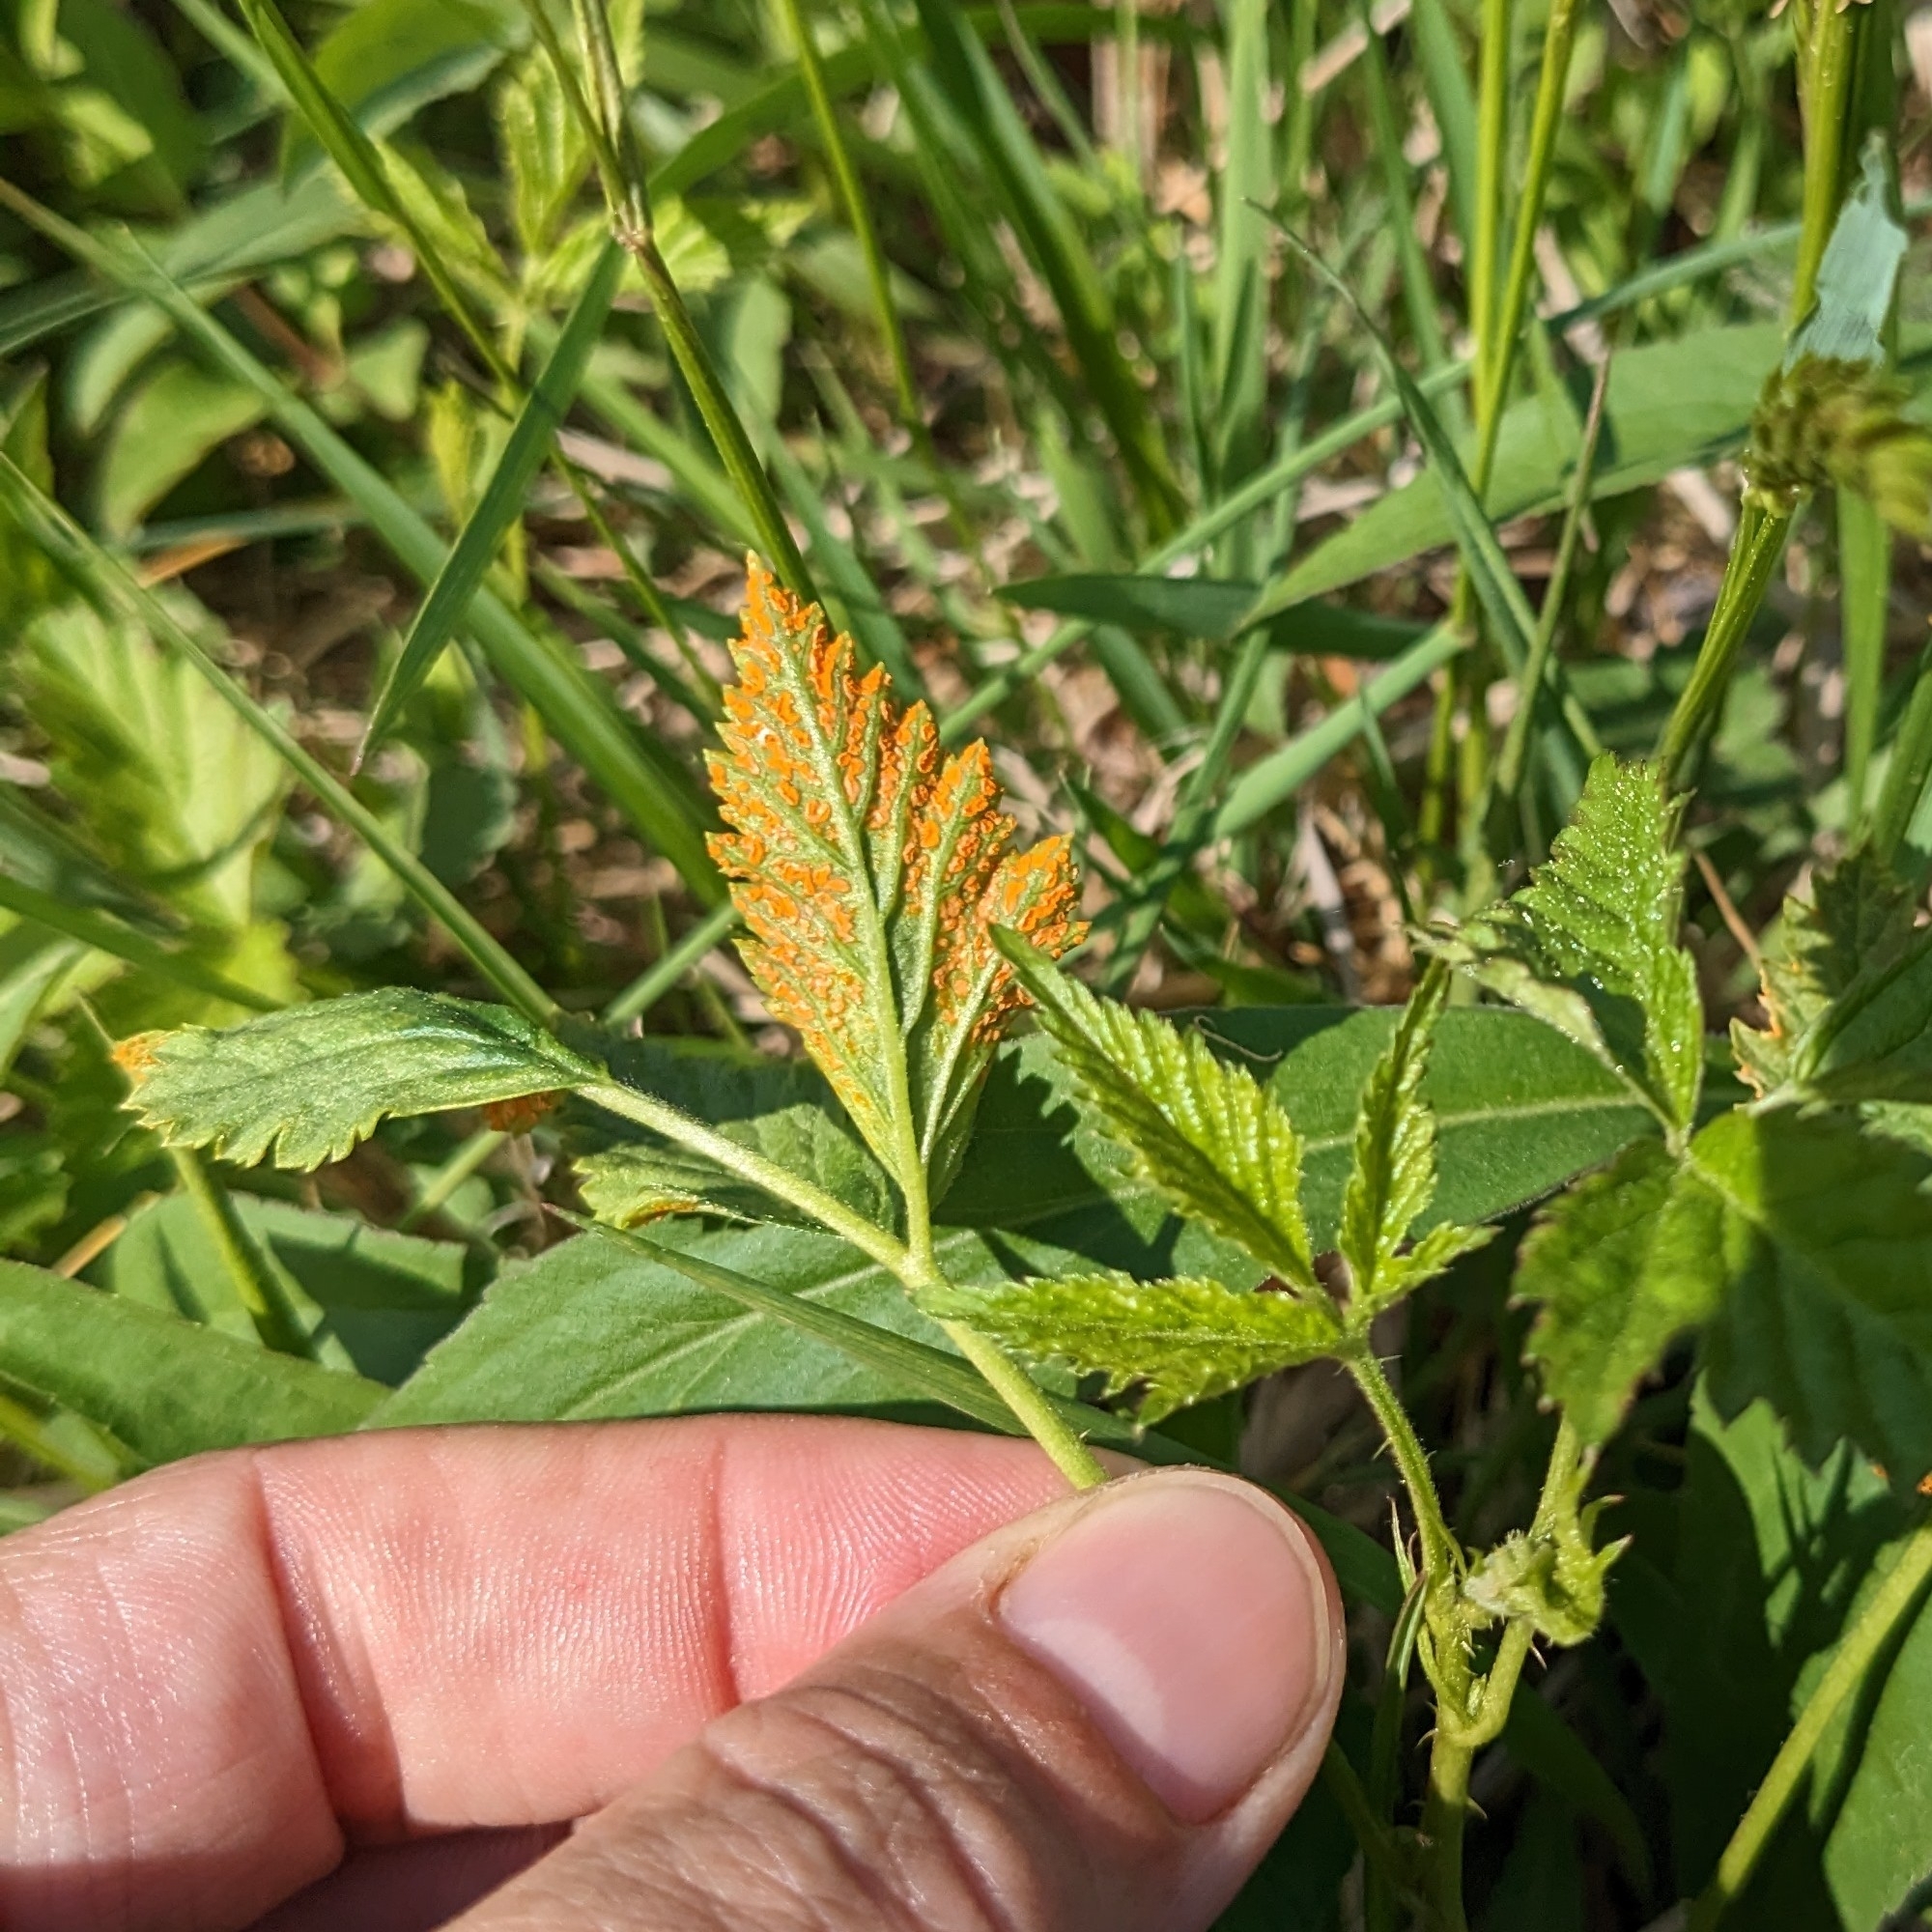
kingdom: Fungi
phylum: Basidiomycota
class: Pucciniomycetes
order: Pucciniales
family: Phragmidiaceae
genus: Arthuriomyces
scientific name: Arthuriomyces peckianus
